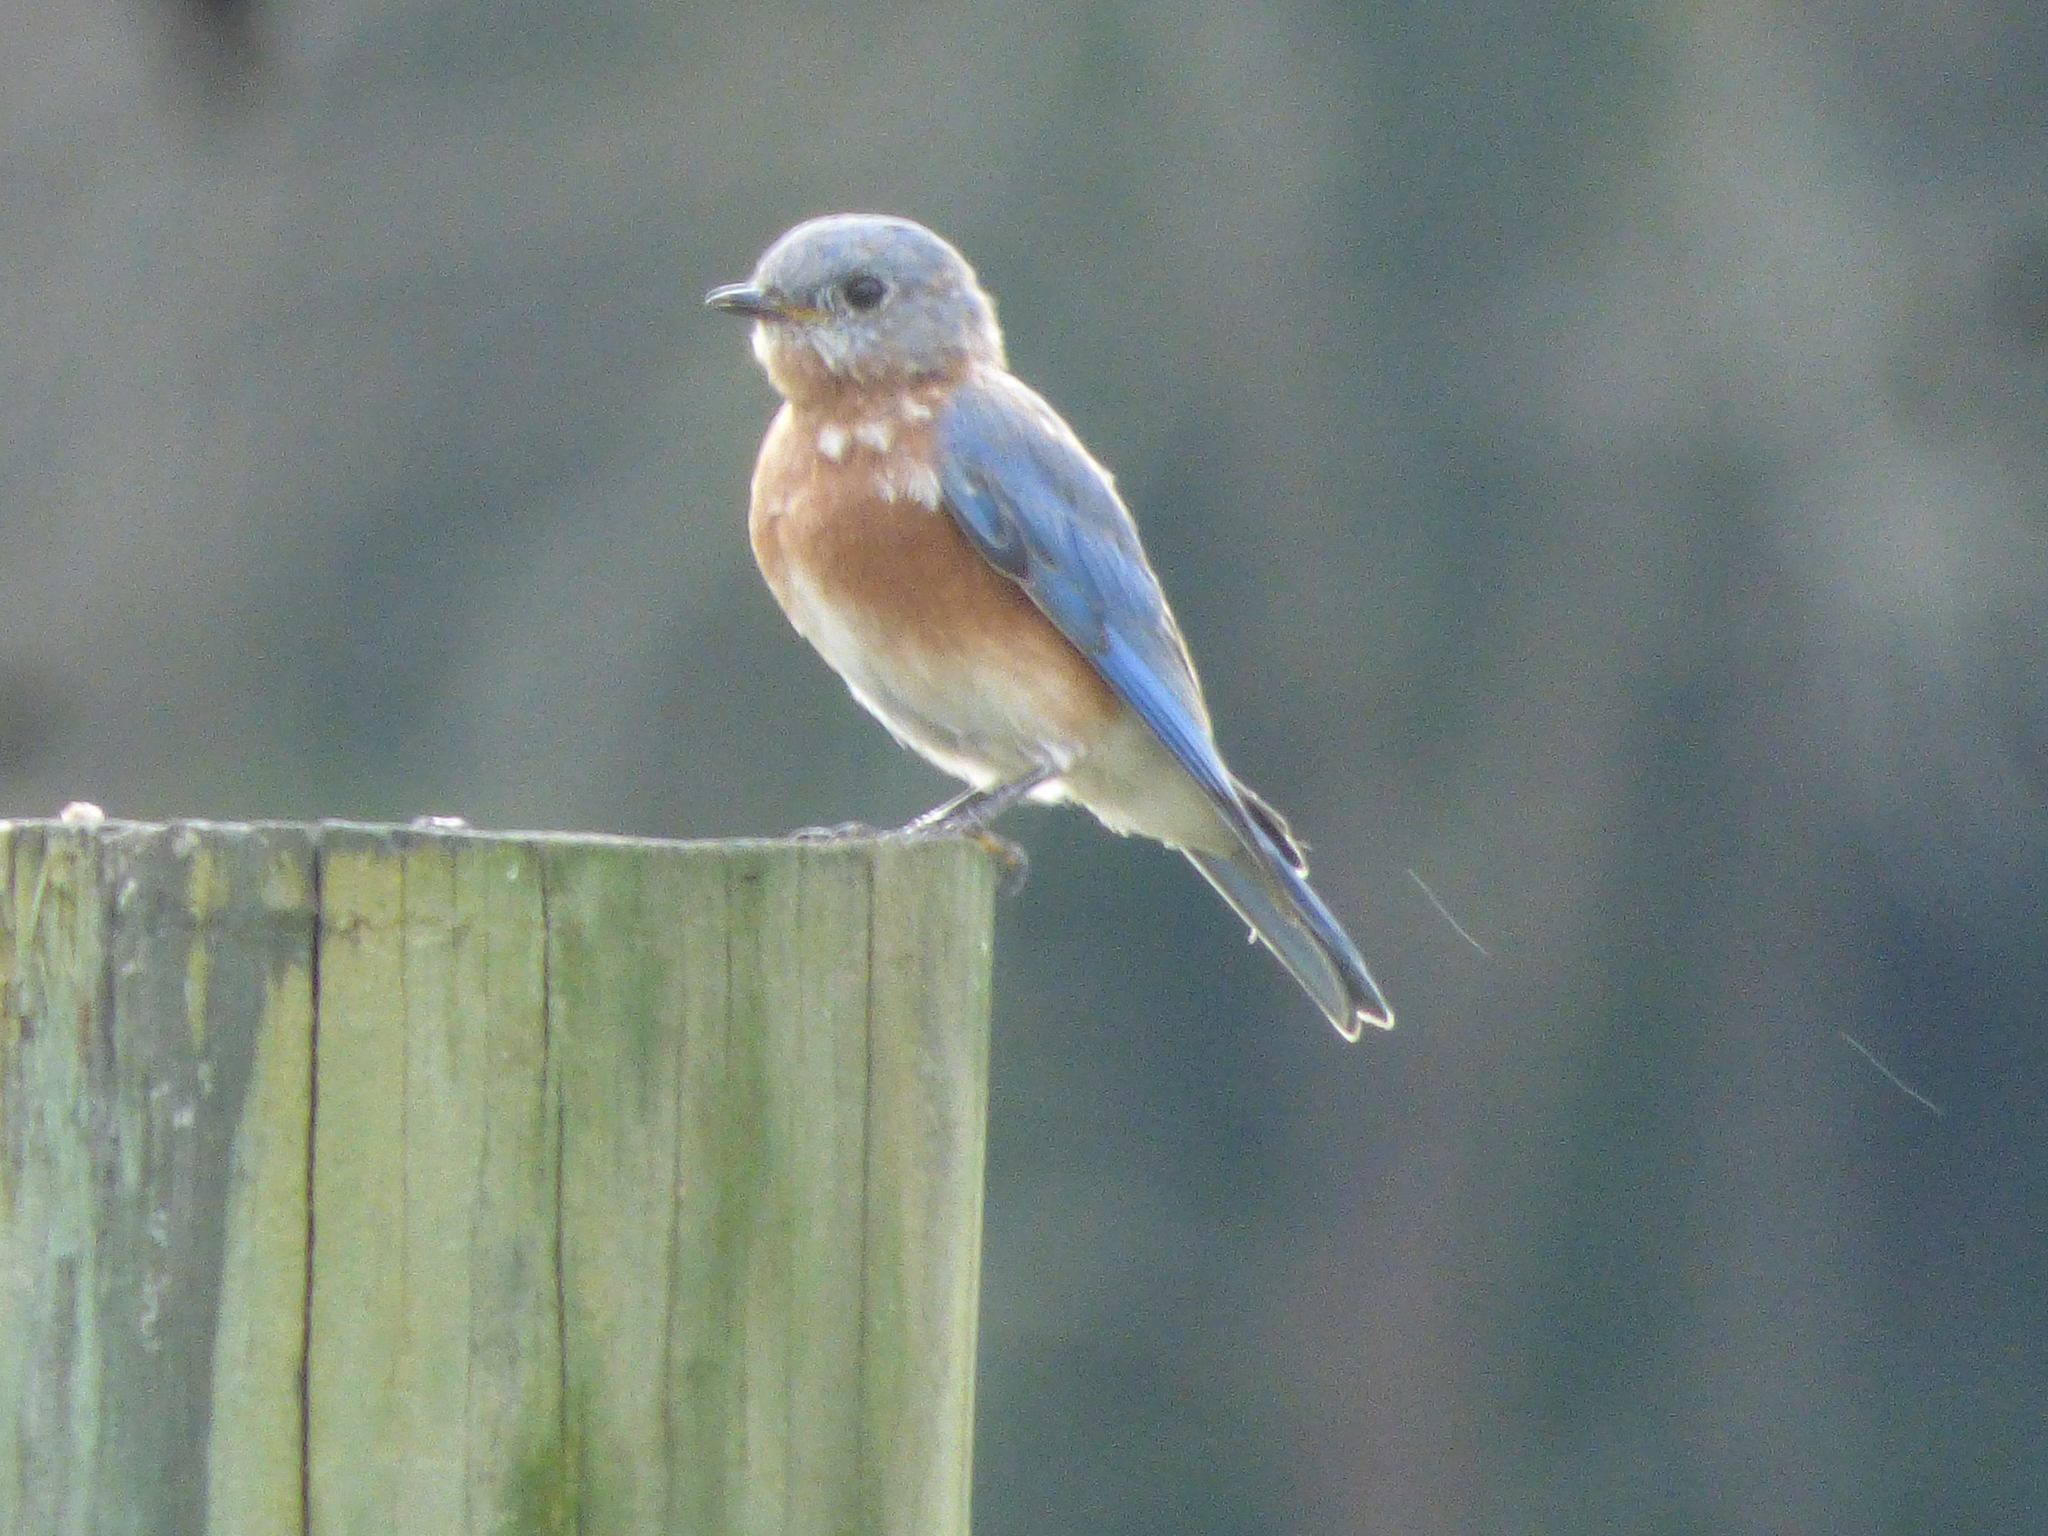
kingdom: Animalia
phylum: Chordata
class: Aves
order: Passeriformes
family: Turdidae
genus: Sialia
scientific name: Sialia sialis
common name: Eastern bluebird
